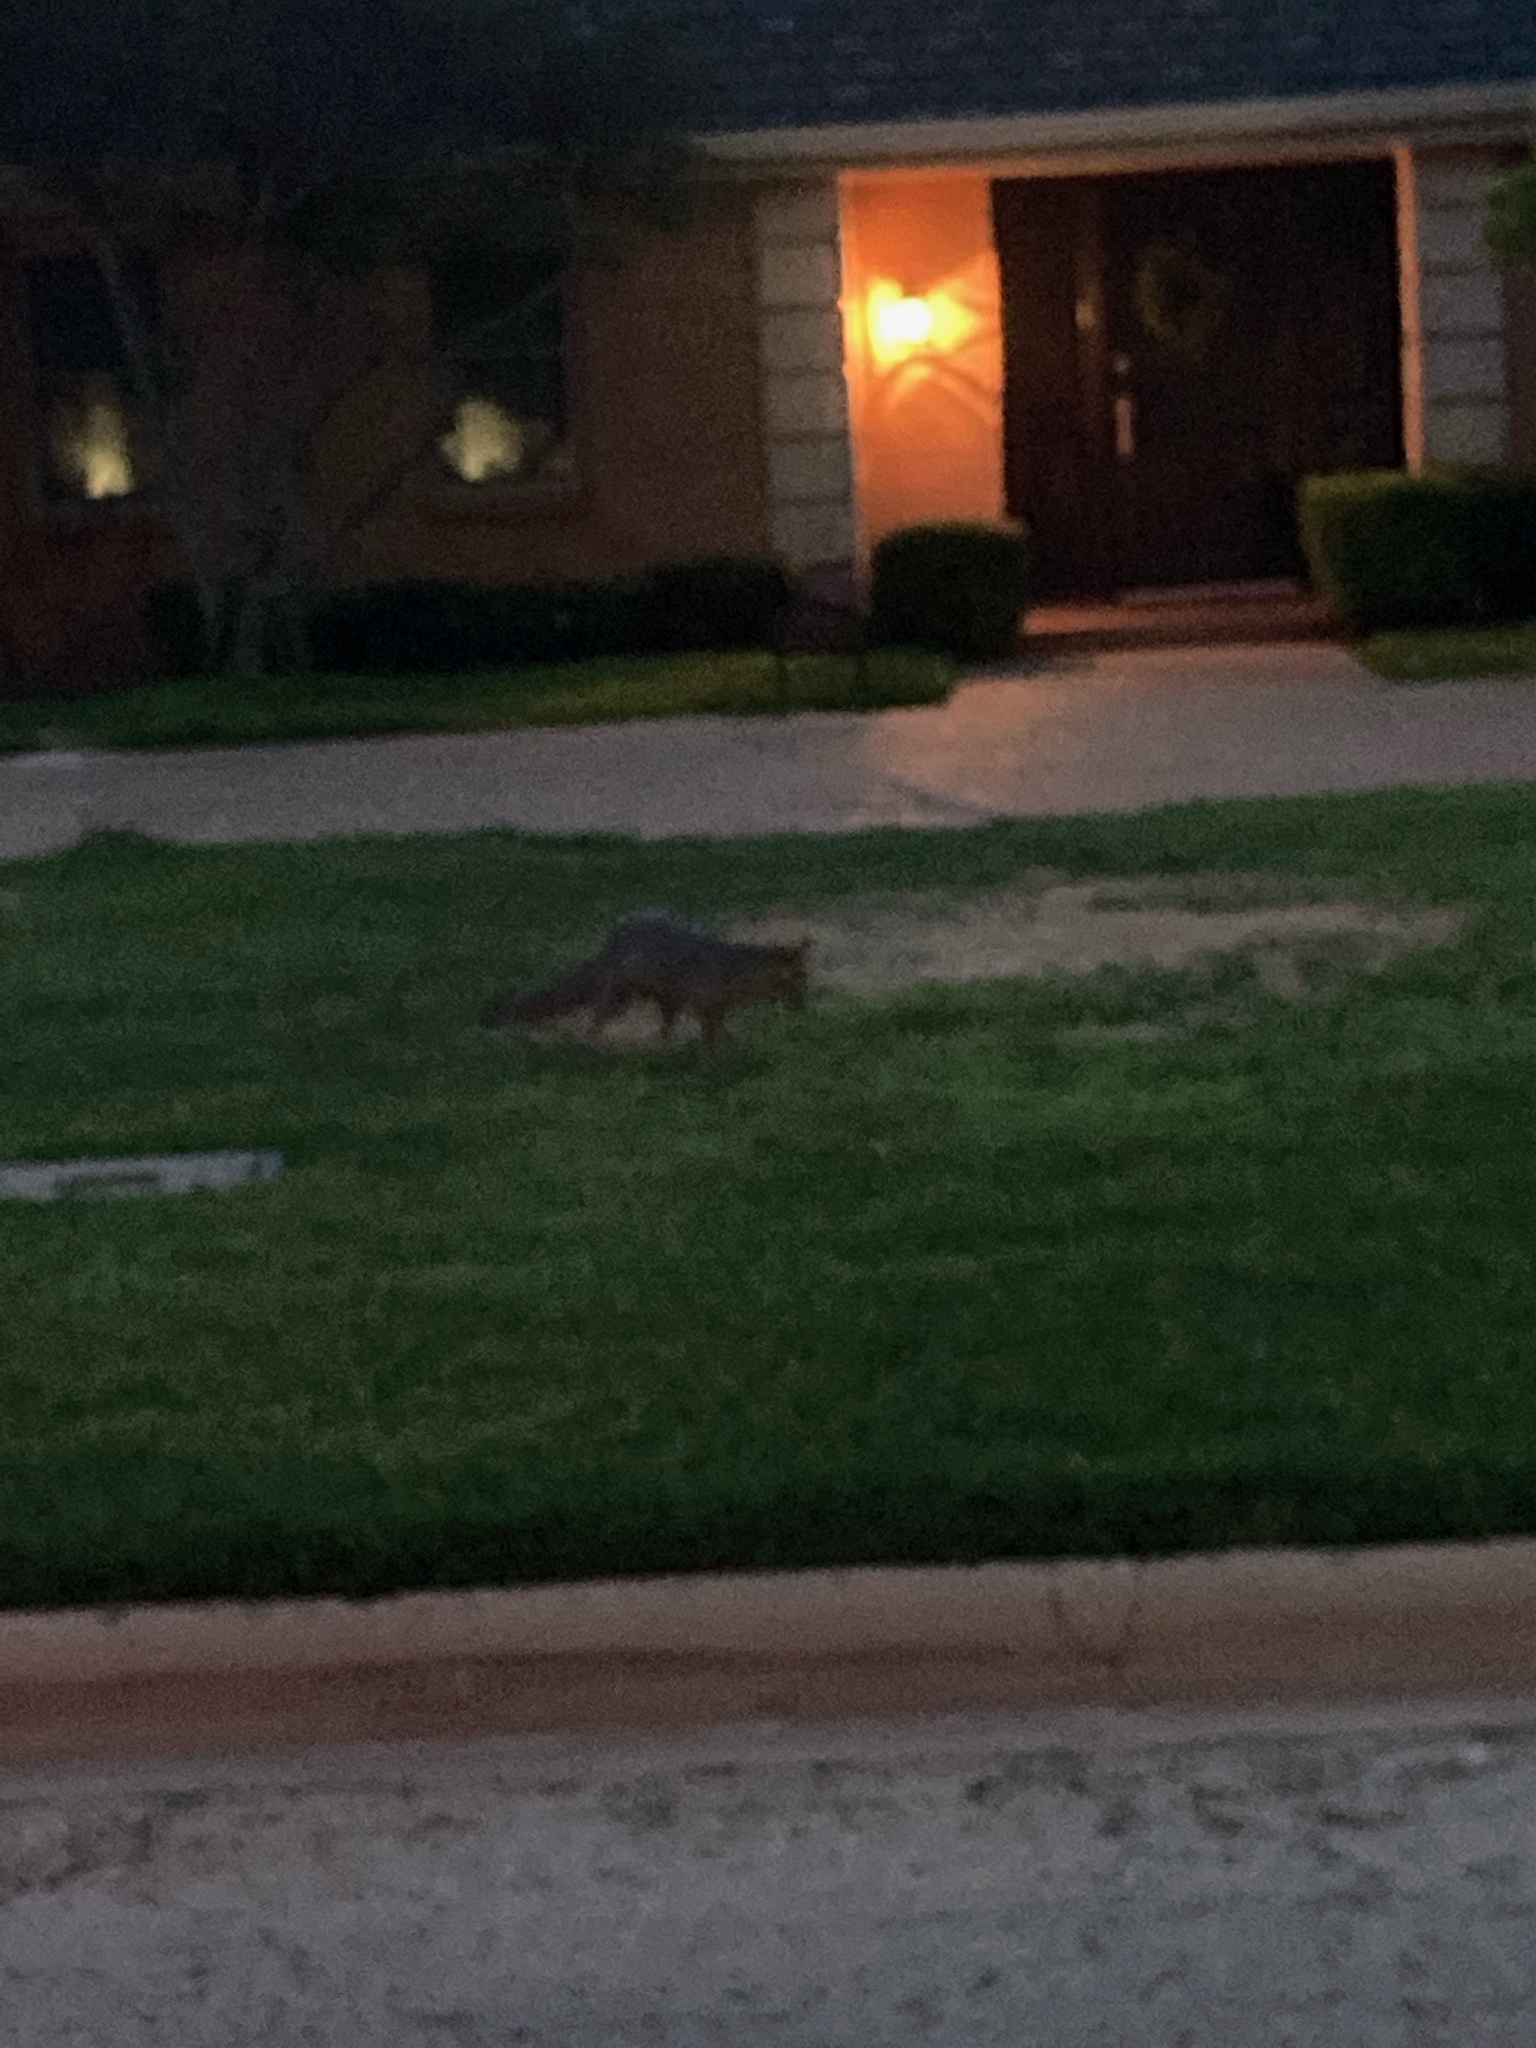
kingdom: Animalia
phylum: Chordata
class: Mammalia
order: Carnivora
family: Canidae
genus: Urocyon
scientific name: Urocyon cinereoargenteus
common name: Gray fox
